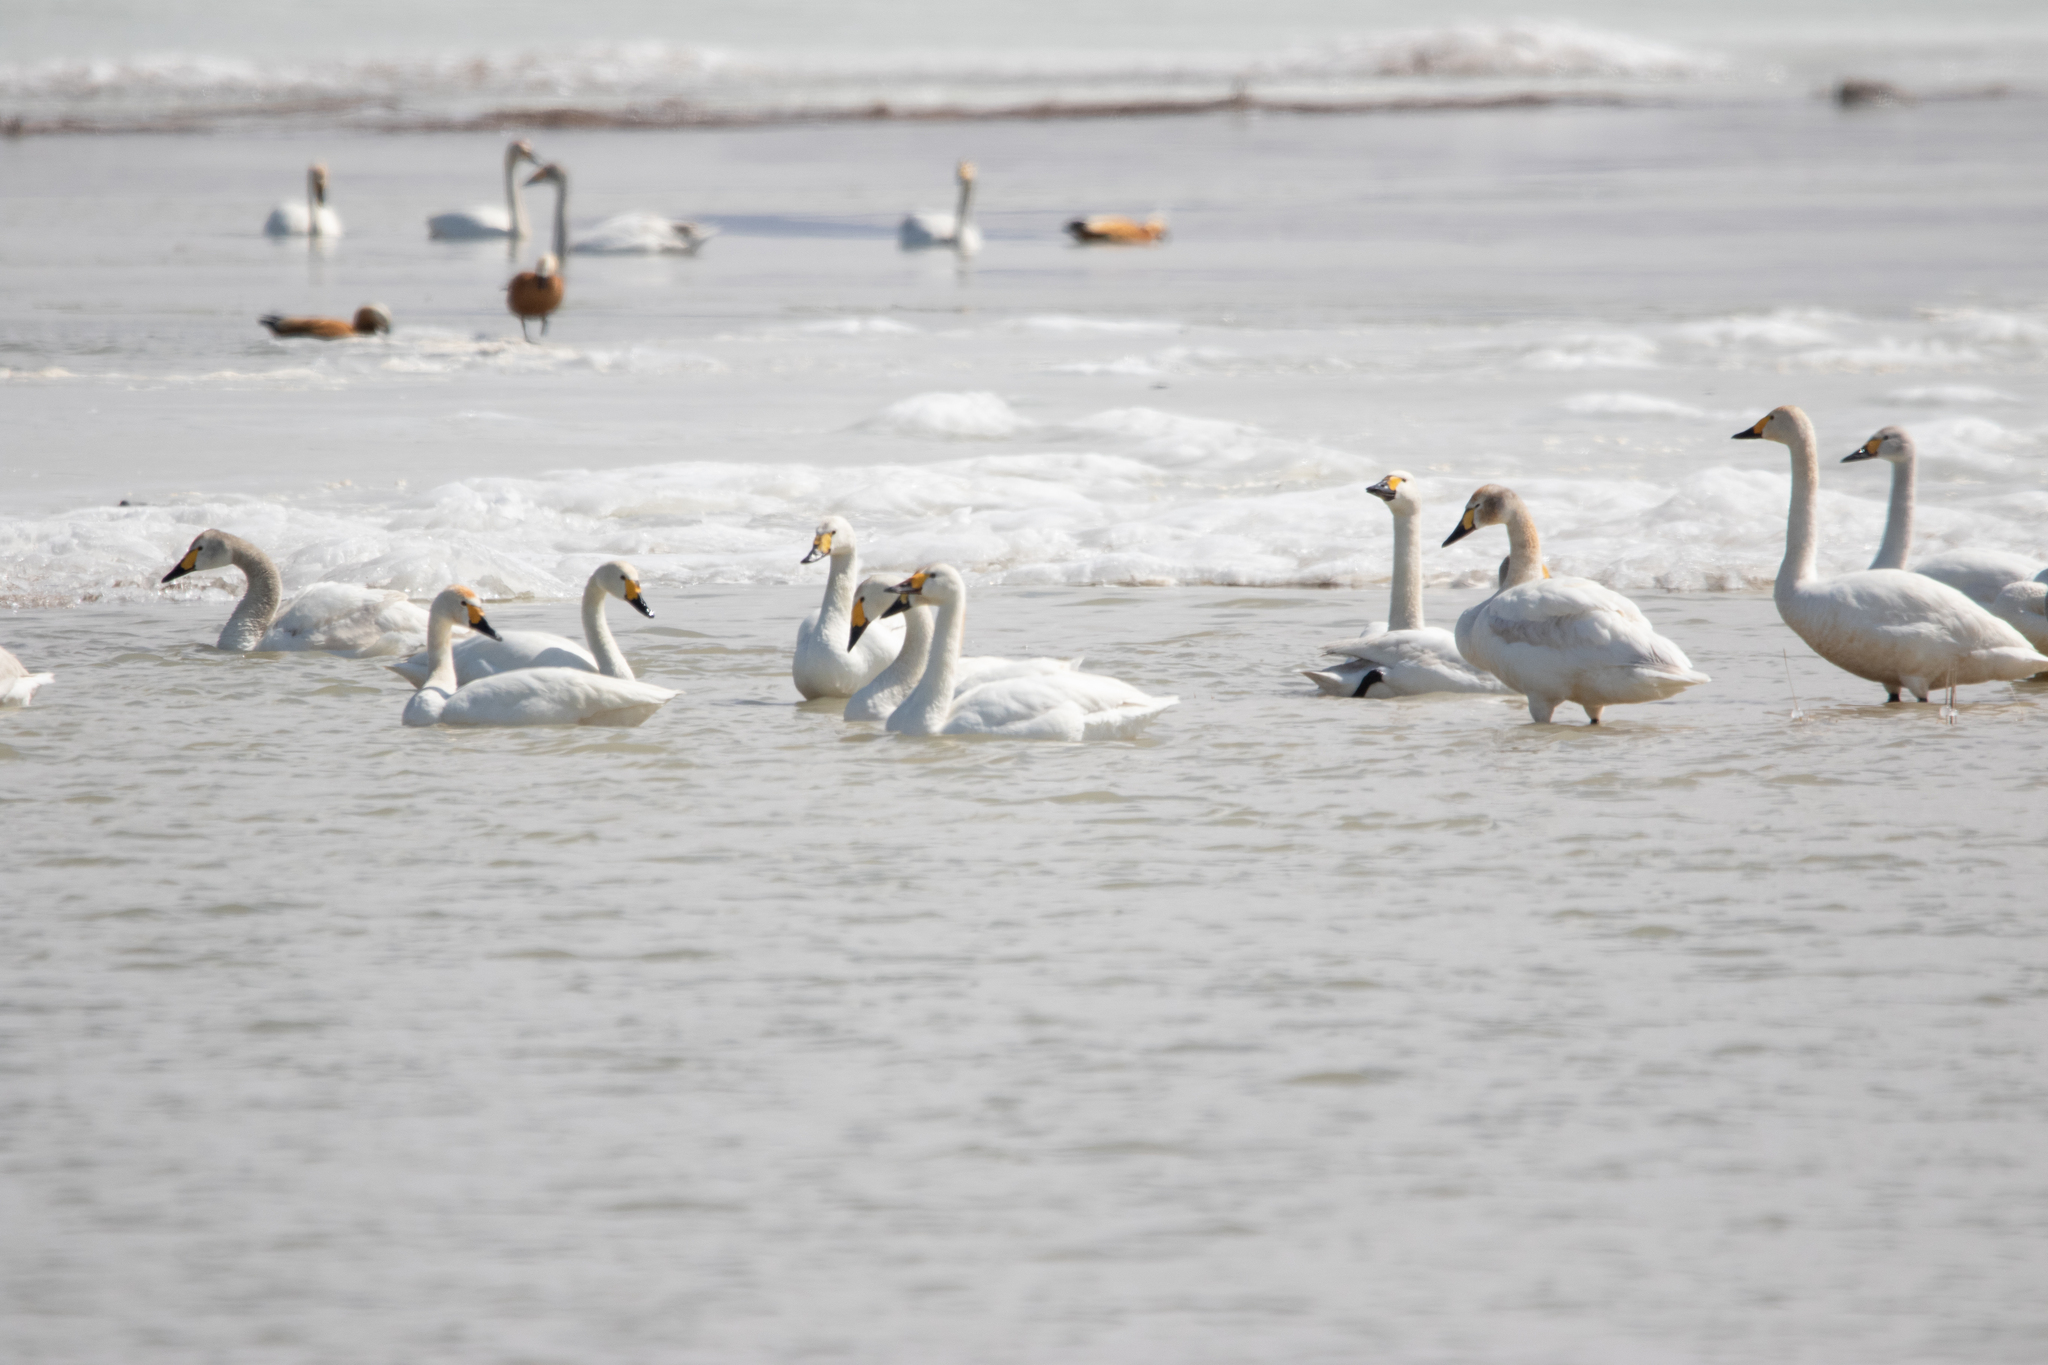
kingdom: Animalia
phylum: Chordata
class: Aves
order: Anseriformes
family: Anatidae
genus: Cygnus
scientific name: Cygnus cygnus
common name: Whooper swan
